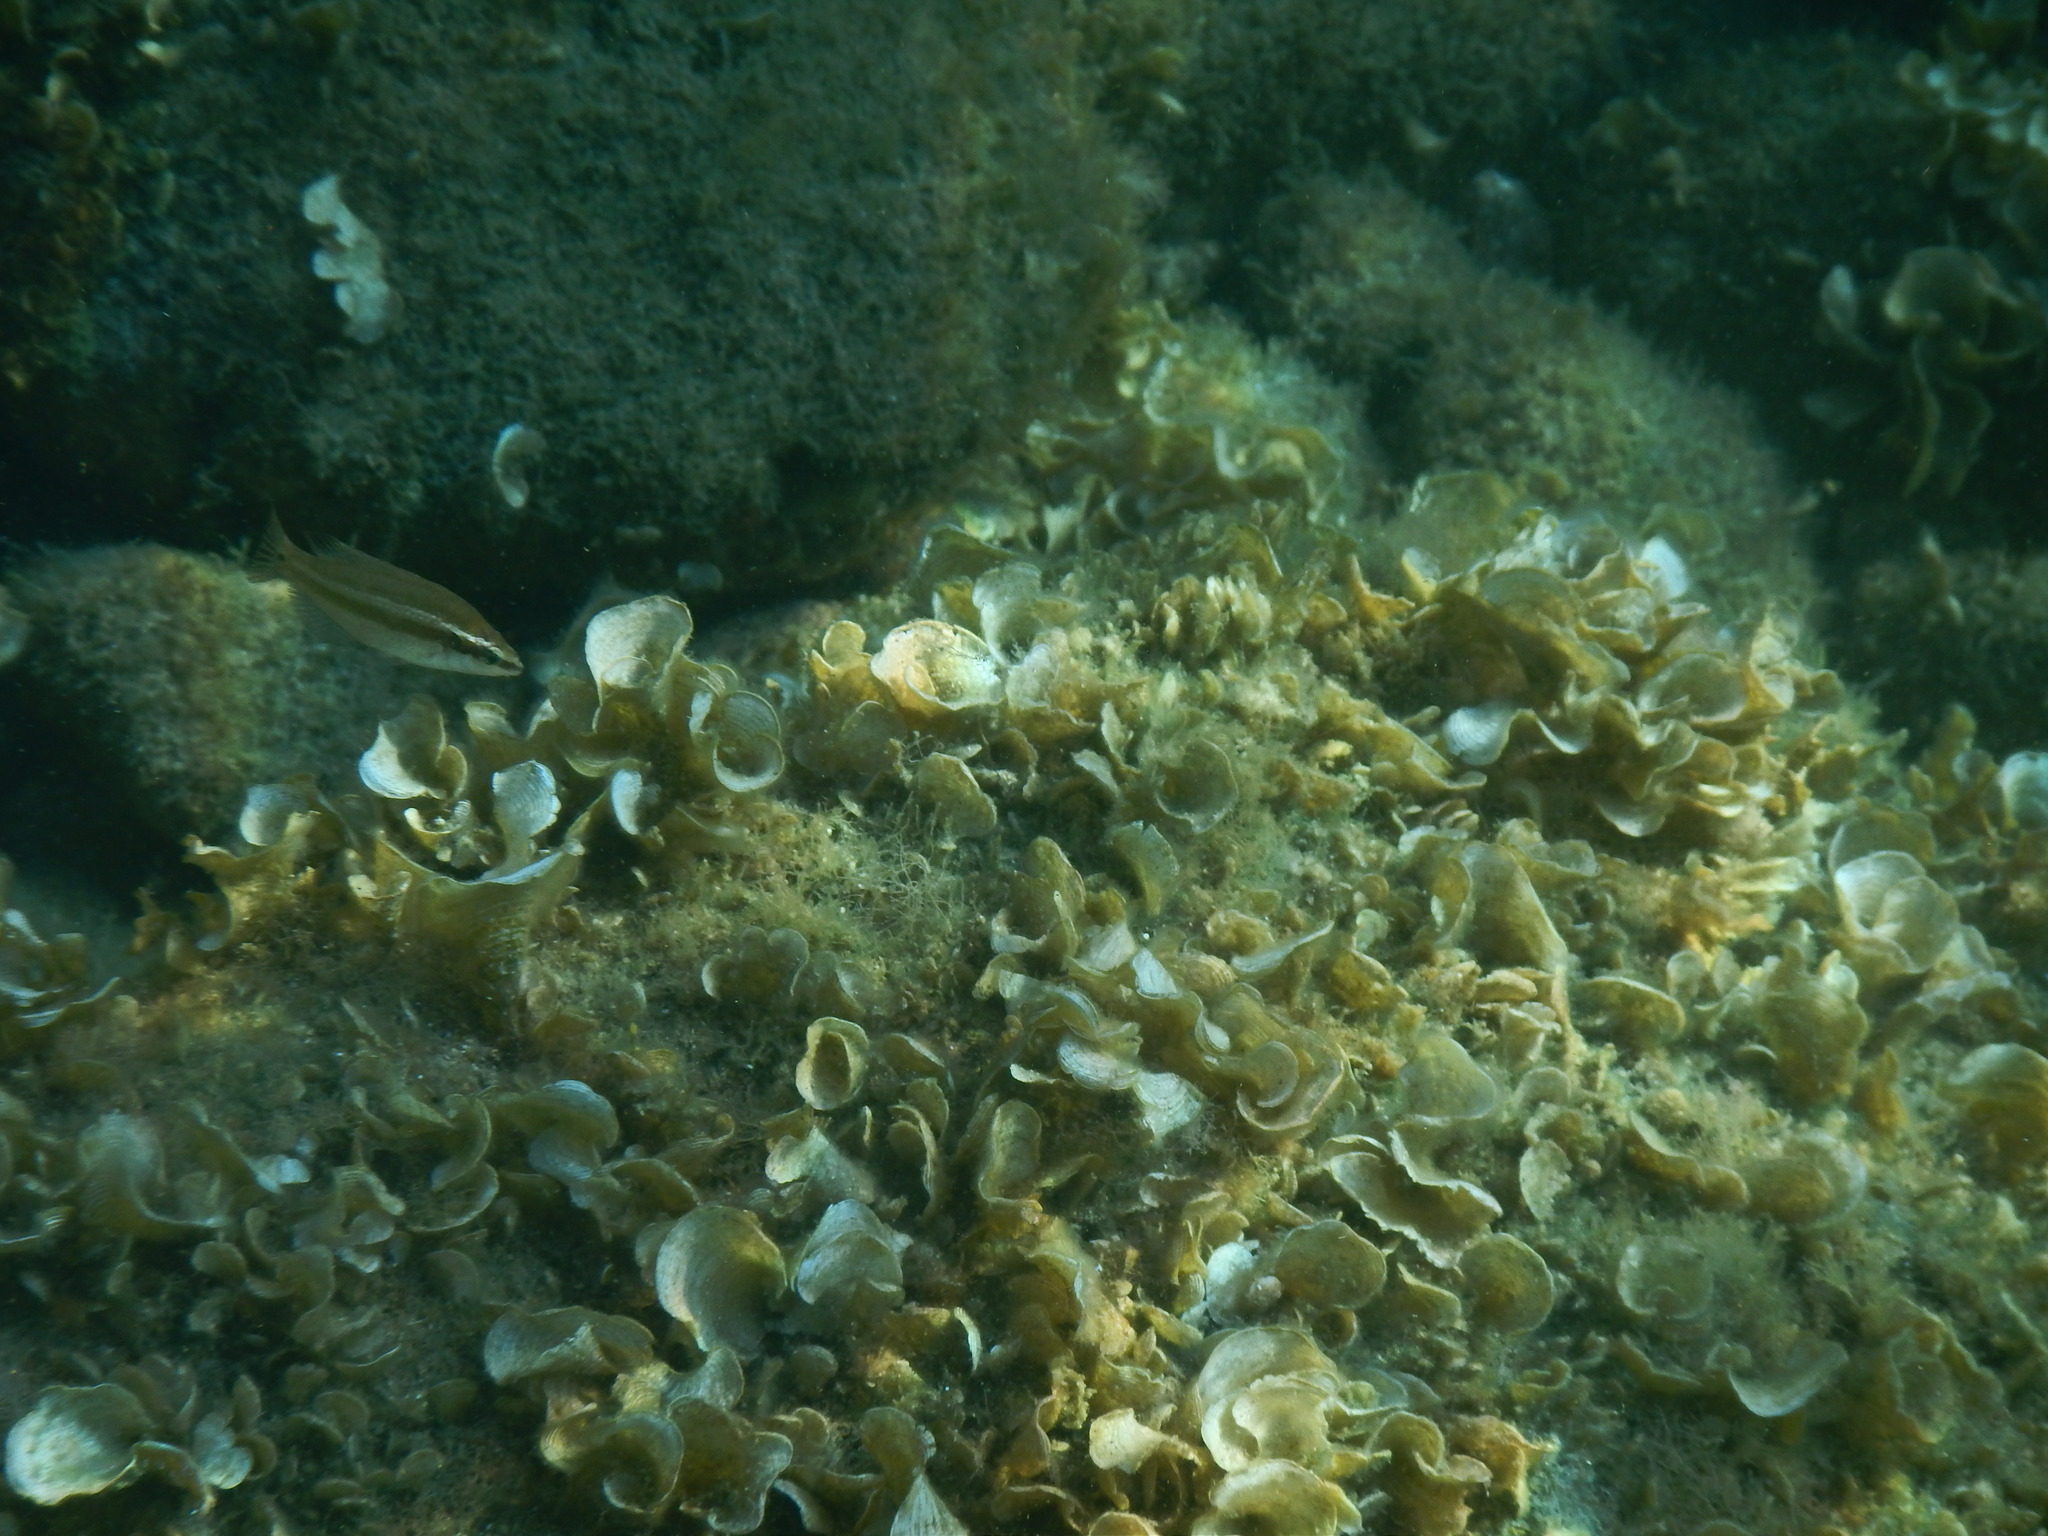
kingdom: Animalia
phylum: Chordata
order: Perciformes
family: Labridae
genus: Symphodus
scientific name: Symphodus ocellatus
